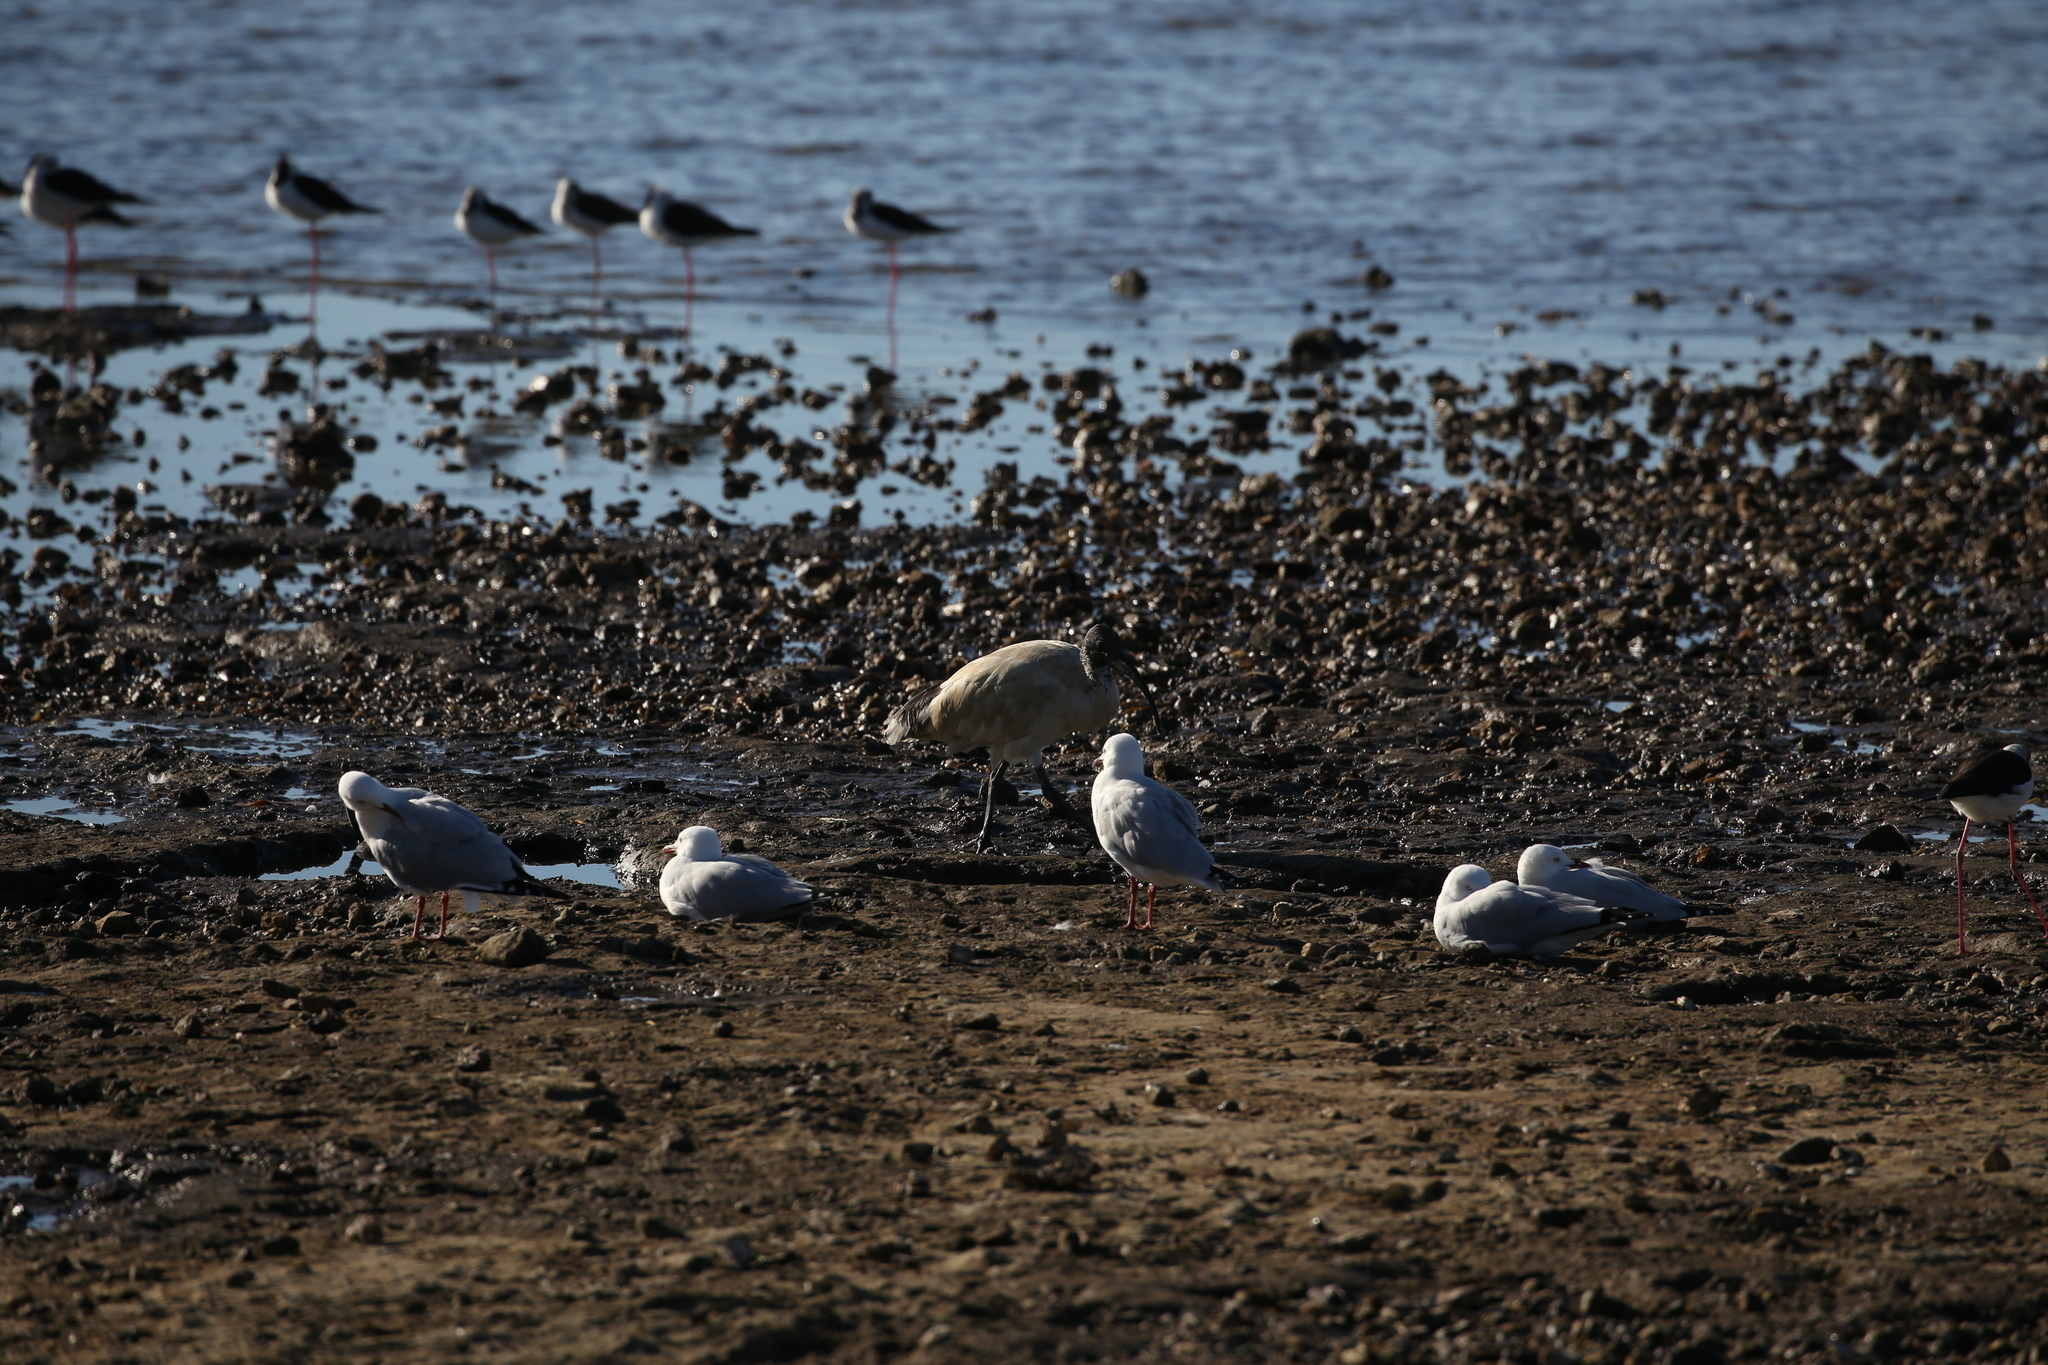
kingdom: Animalia
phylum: Chordata
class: Aves
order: Pelecaniformes
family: Threskiornithidae
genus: Threskiornis
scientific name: Threskiornis molucca
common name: Australian white ibis
